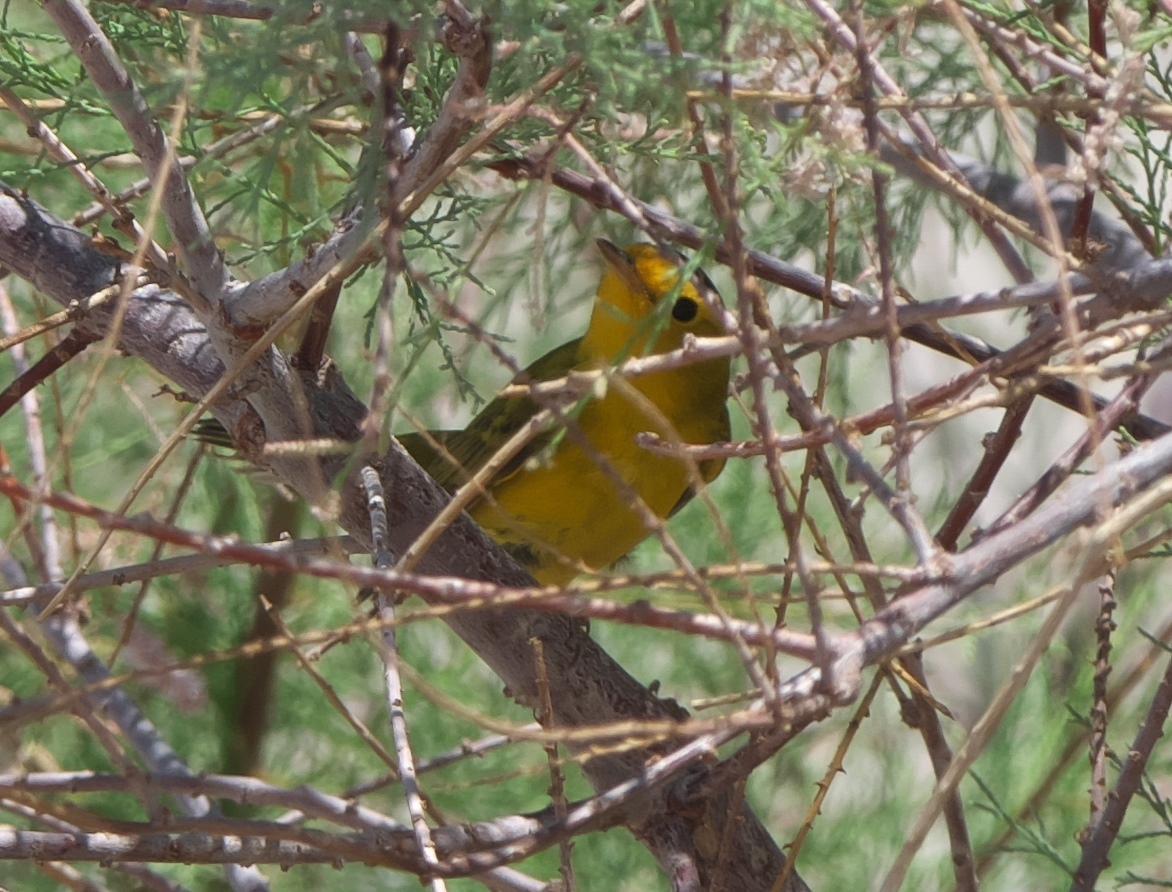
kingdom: Animalia
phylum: Chordata
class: Aves
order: Passeriformes
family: Parulidae
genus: Cardellina
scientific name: Cardellina pusilla
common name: Wilson's warbler
